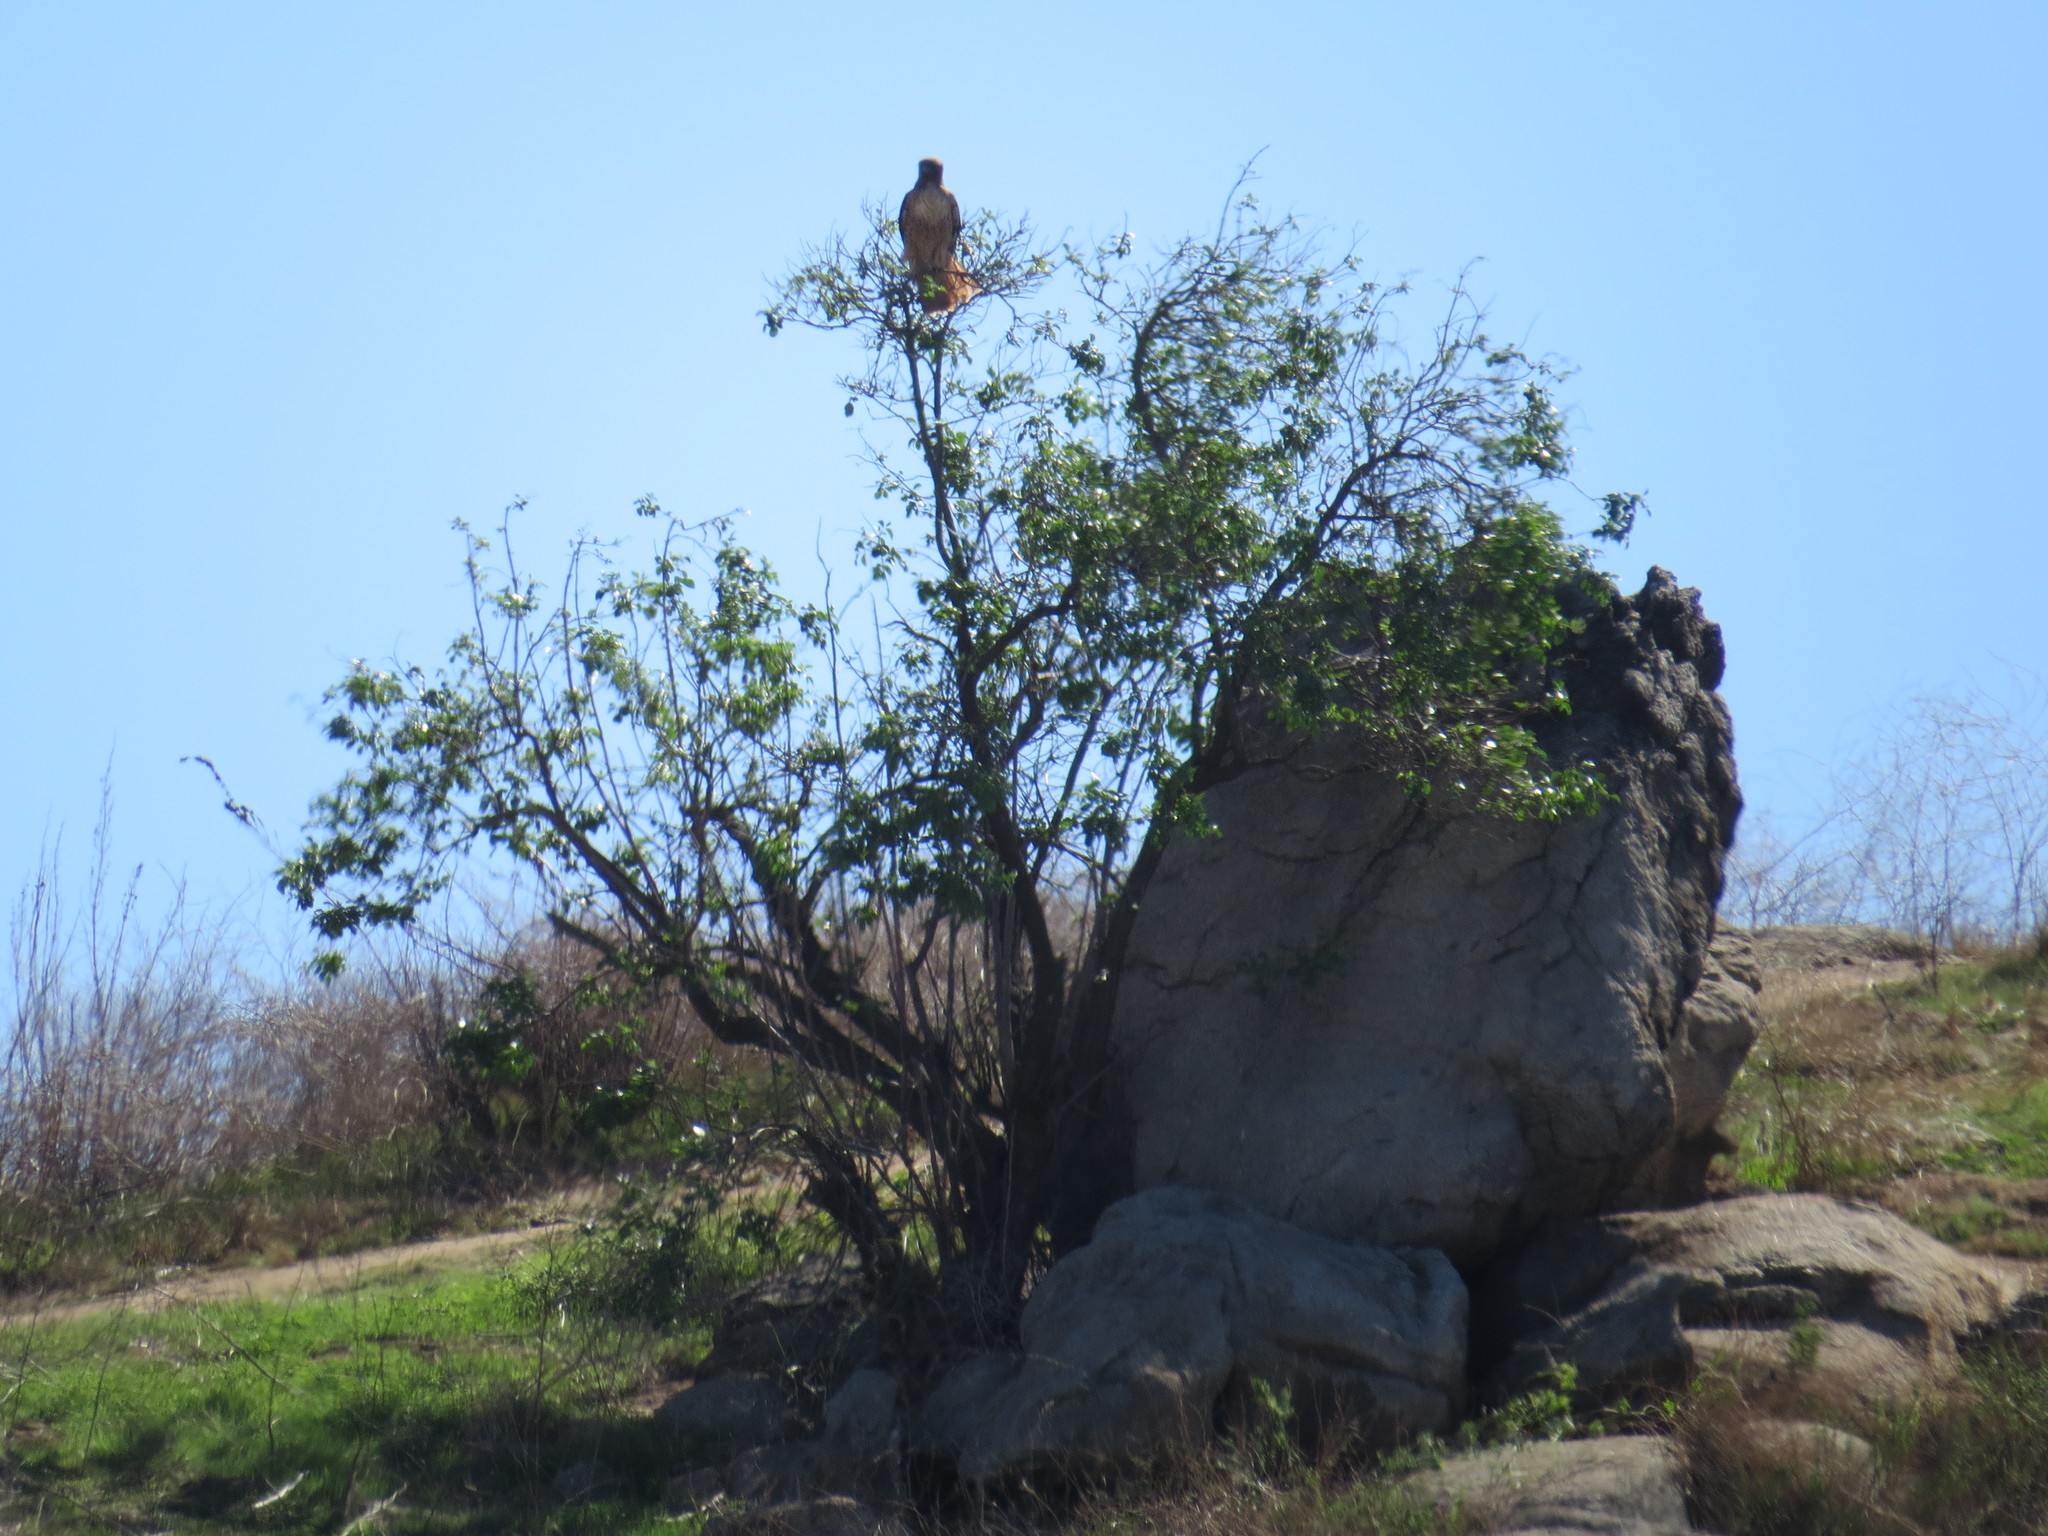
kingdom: Animalia
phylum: Chordata
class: Aves
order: Accipitriformes
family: Accipitridae
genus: Buteo
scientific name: Buteo jamaicensis
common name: Red-tailed hawk
